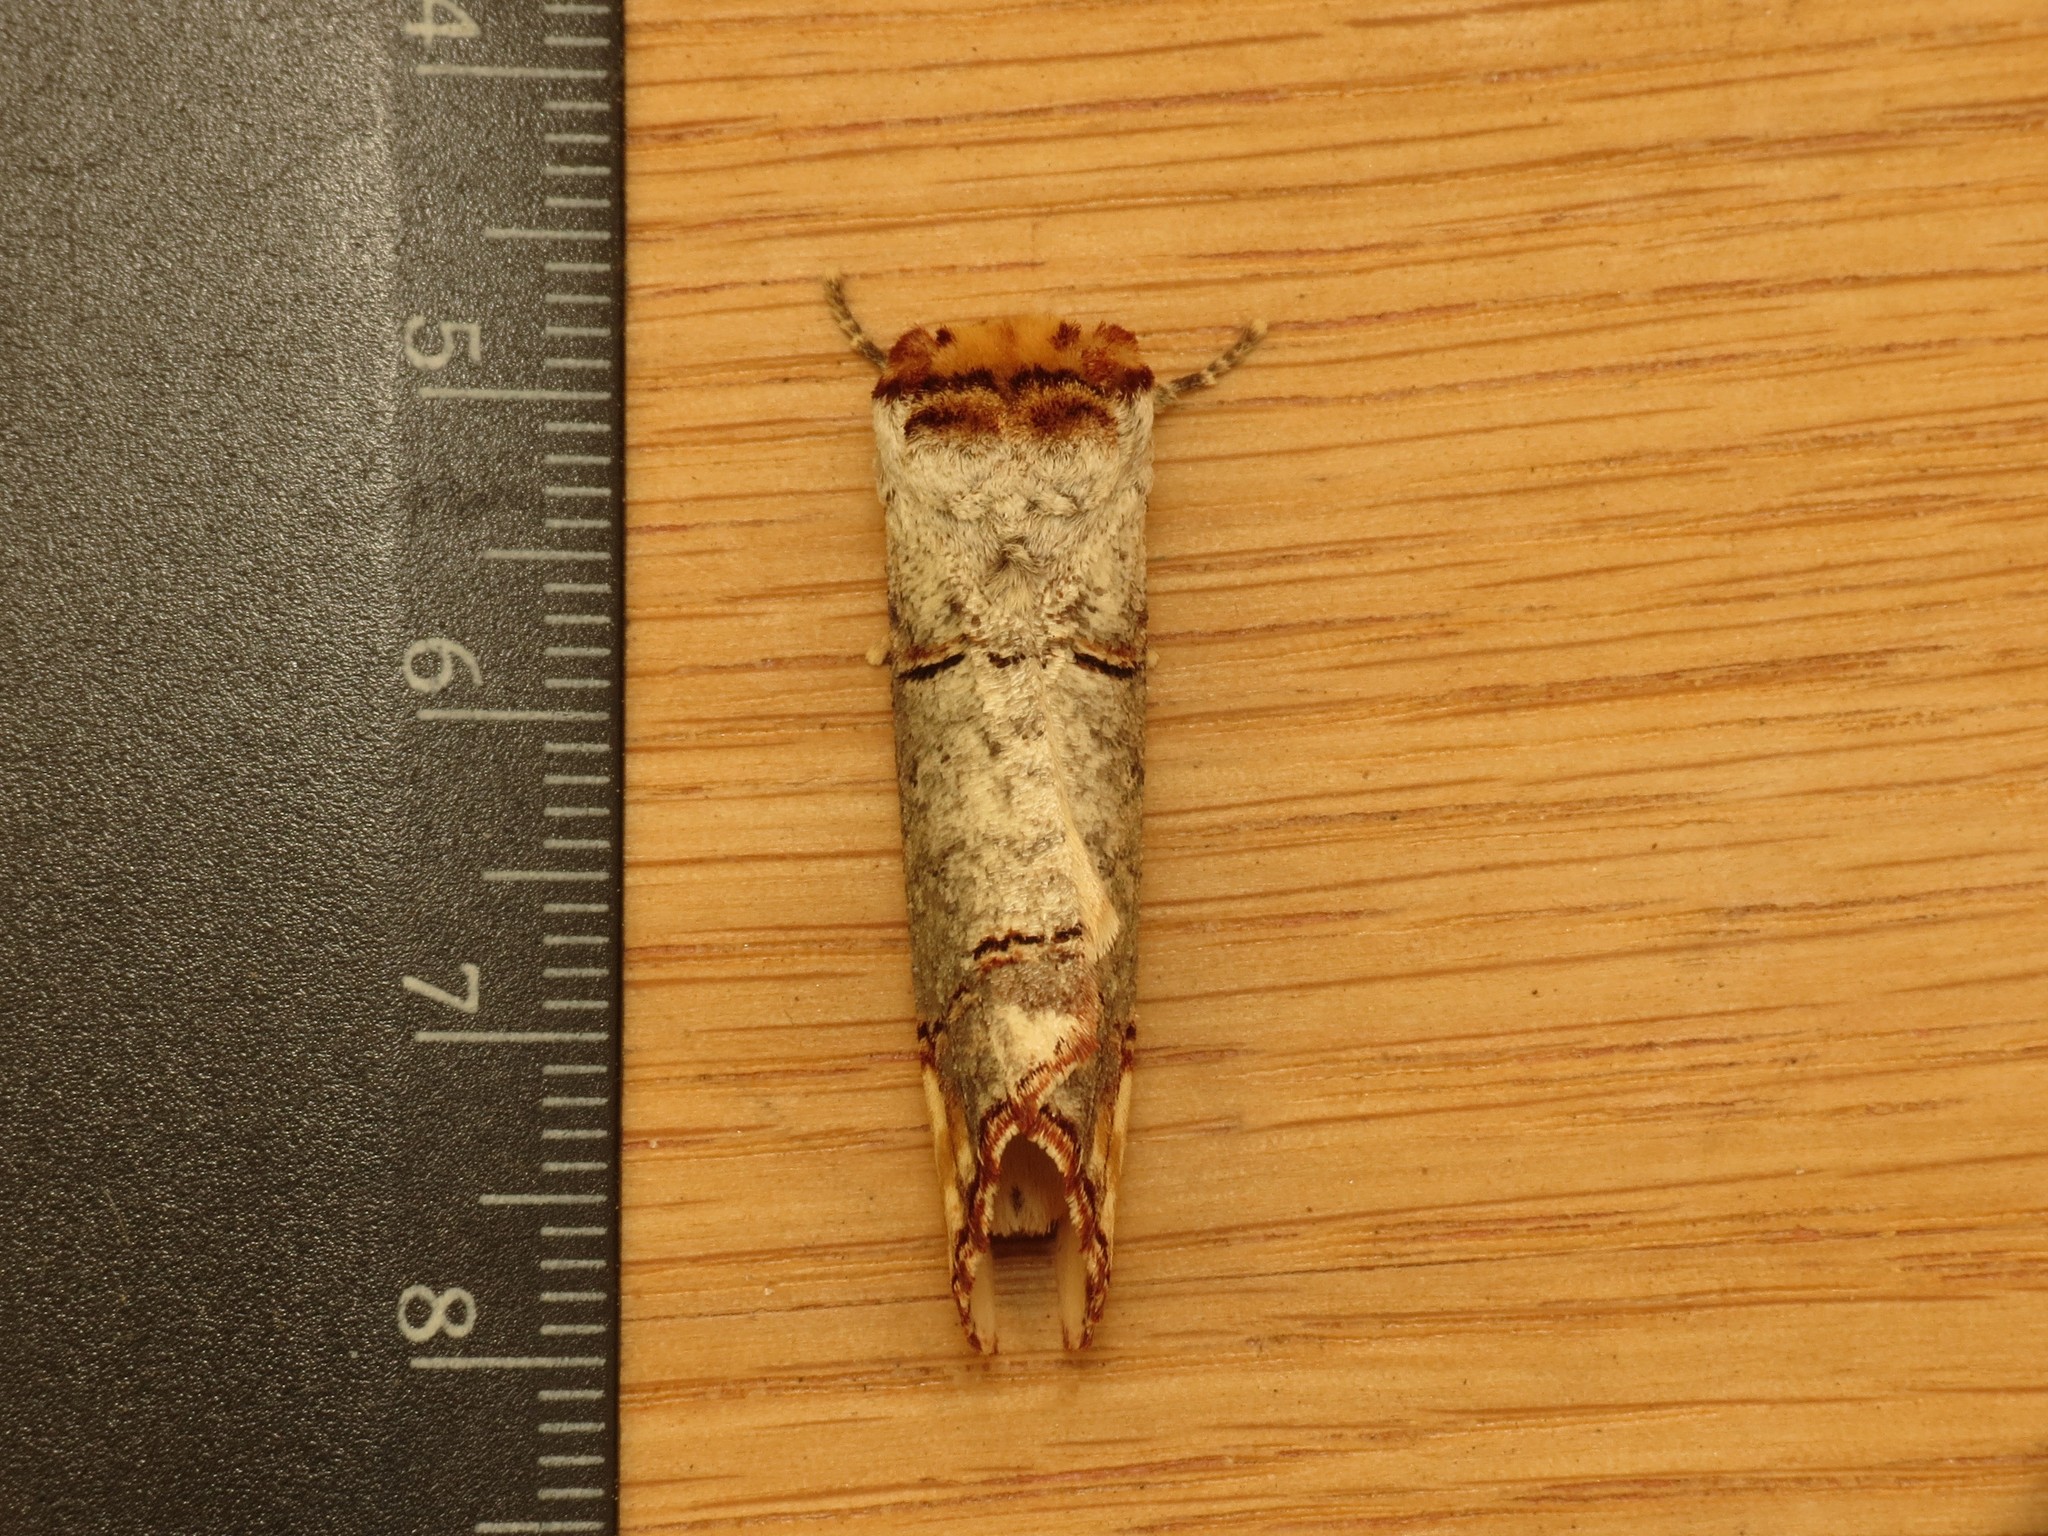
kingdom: Animalia
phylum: Arthropoda
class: Insecta
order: Lepidoptera
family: Notodontidae
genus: Phalera
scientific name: Phalera bucephala
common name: Buff-tip
